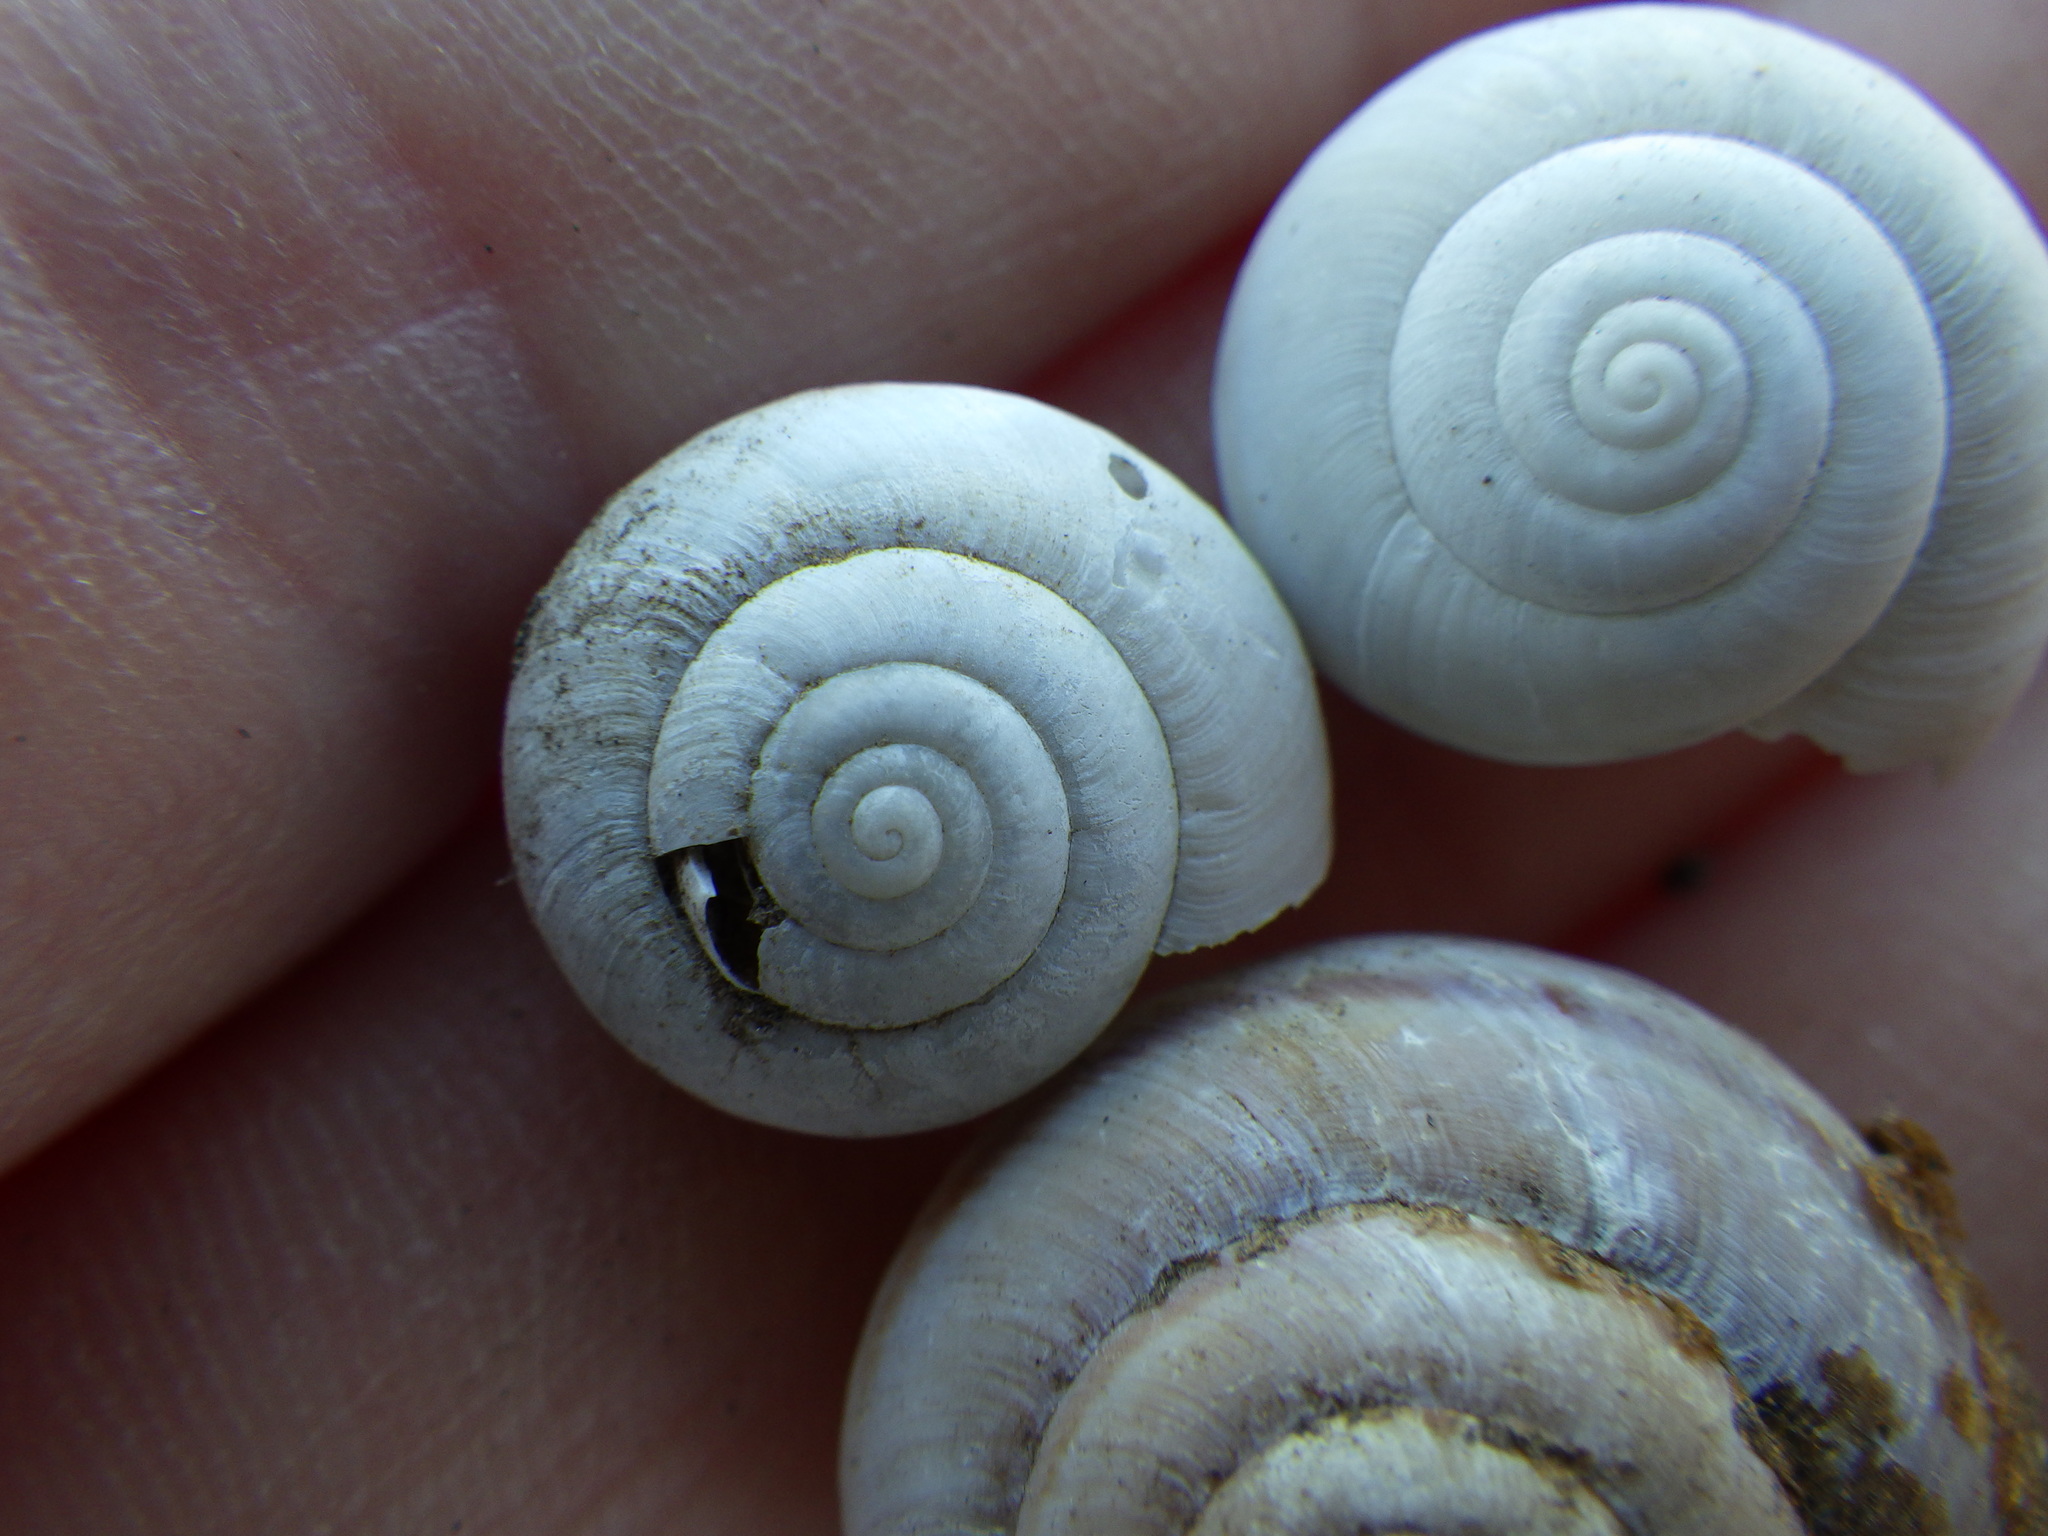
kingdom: Animalia
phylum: Mollusca
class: Gastropoda
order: Stylommatophora
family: Xanthonychidae
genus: Helminthoglypta
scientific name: Helminthoglypta traskii
